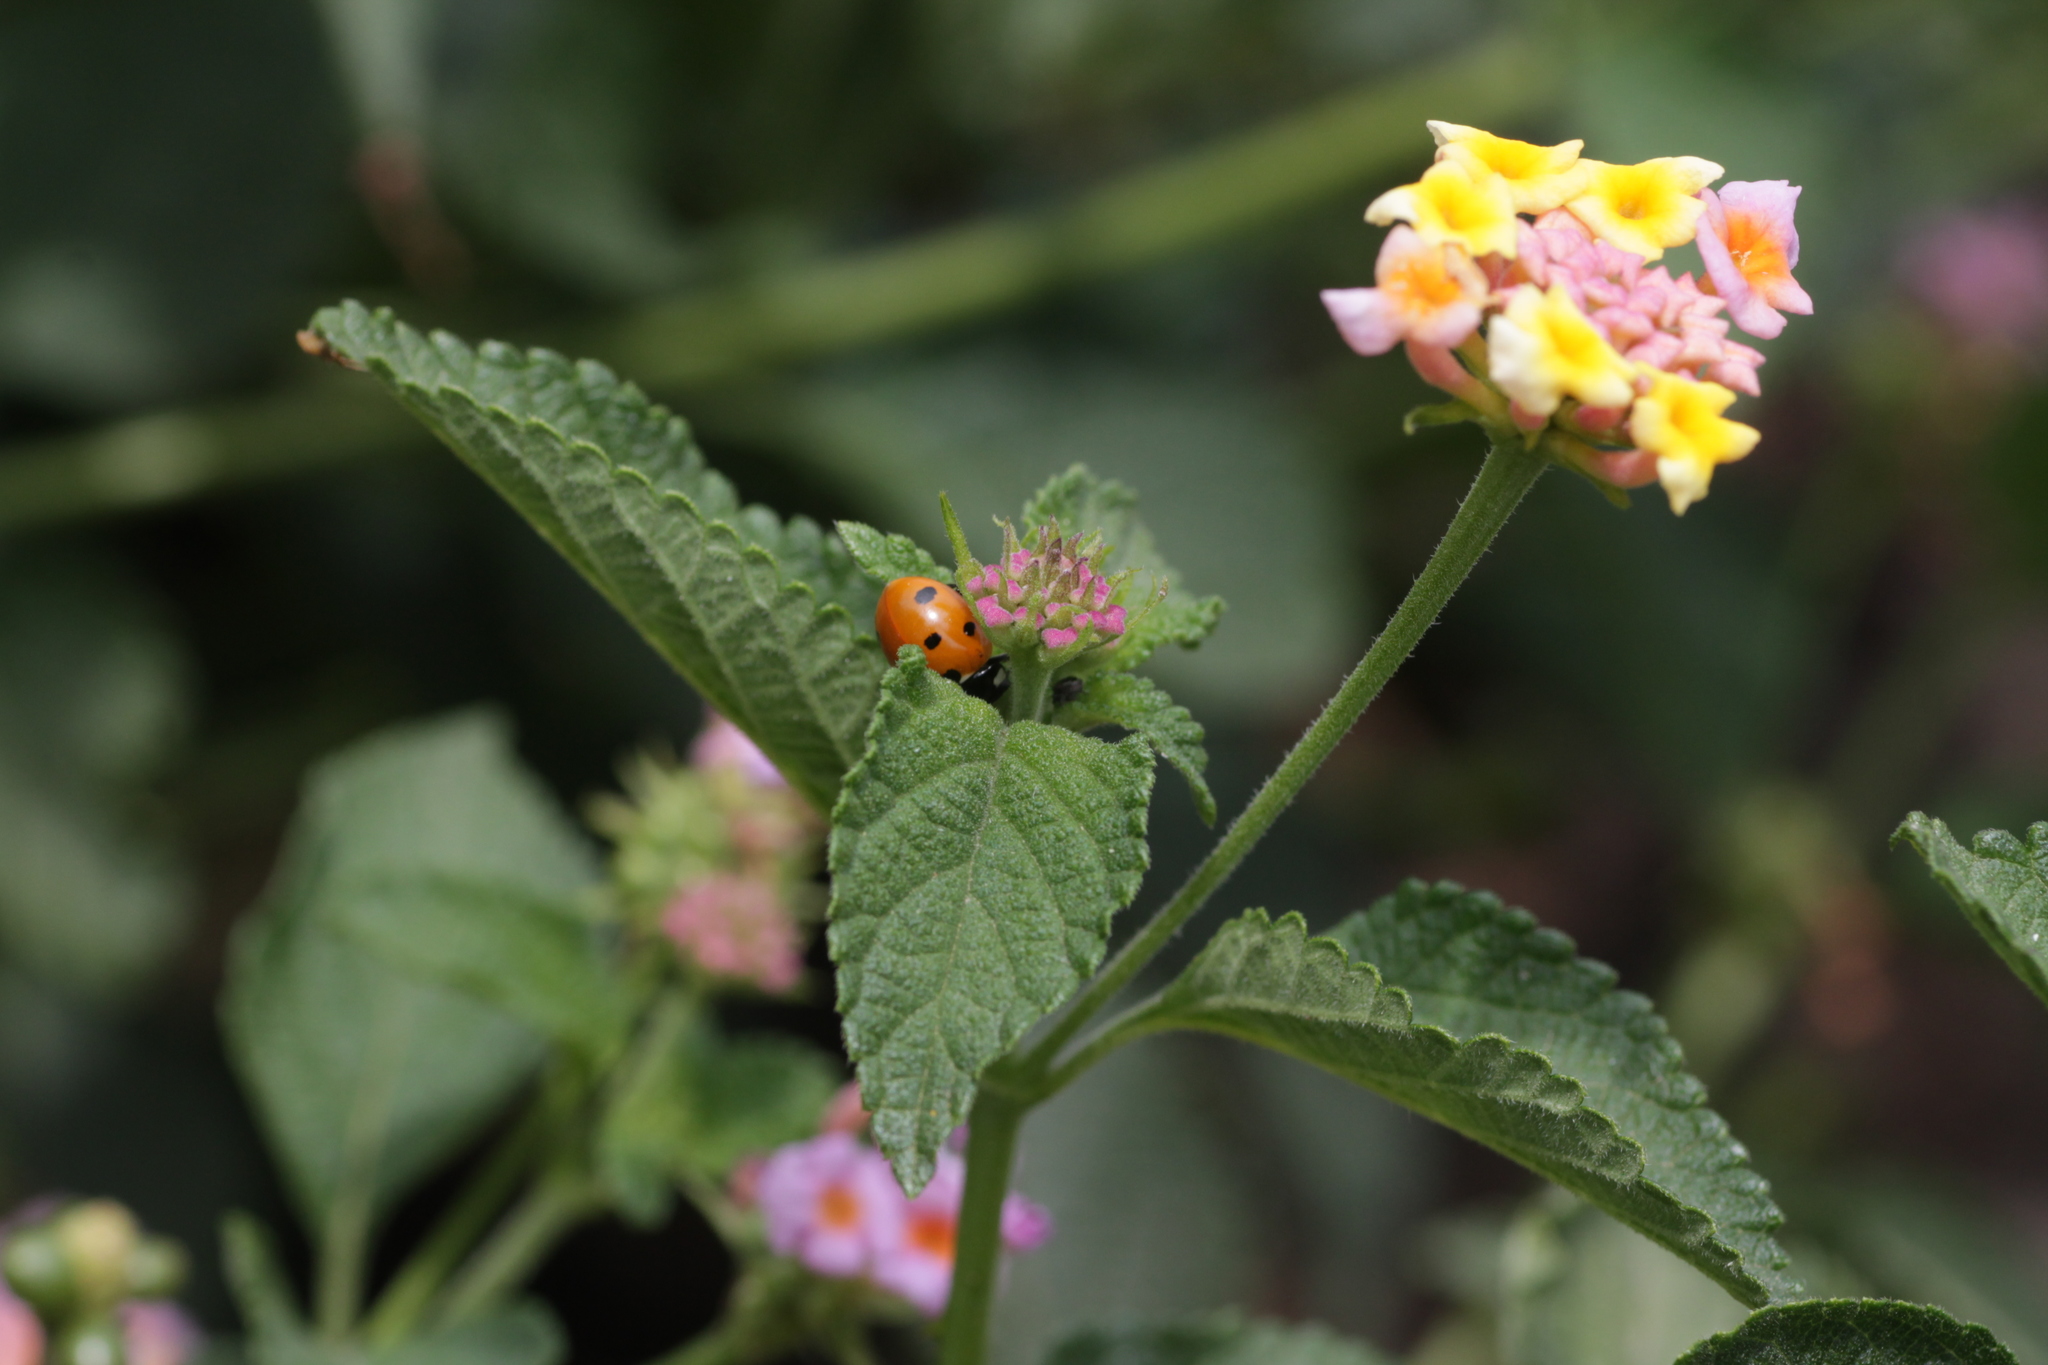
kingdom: Plantae
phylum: Tracheophyta
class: Magnoliopsida
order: Lamiales
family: Verbenaceae
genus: Lantana
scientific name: Lantana camara
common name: Lantana
